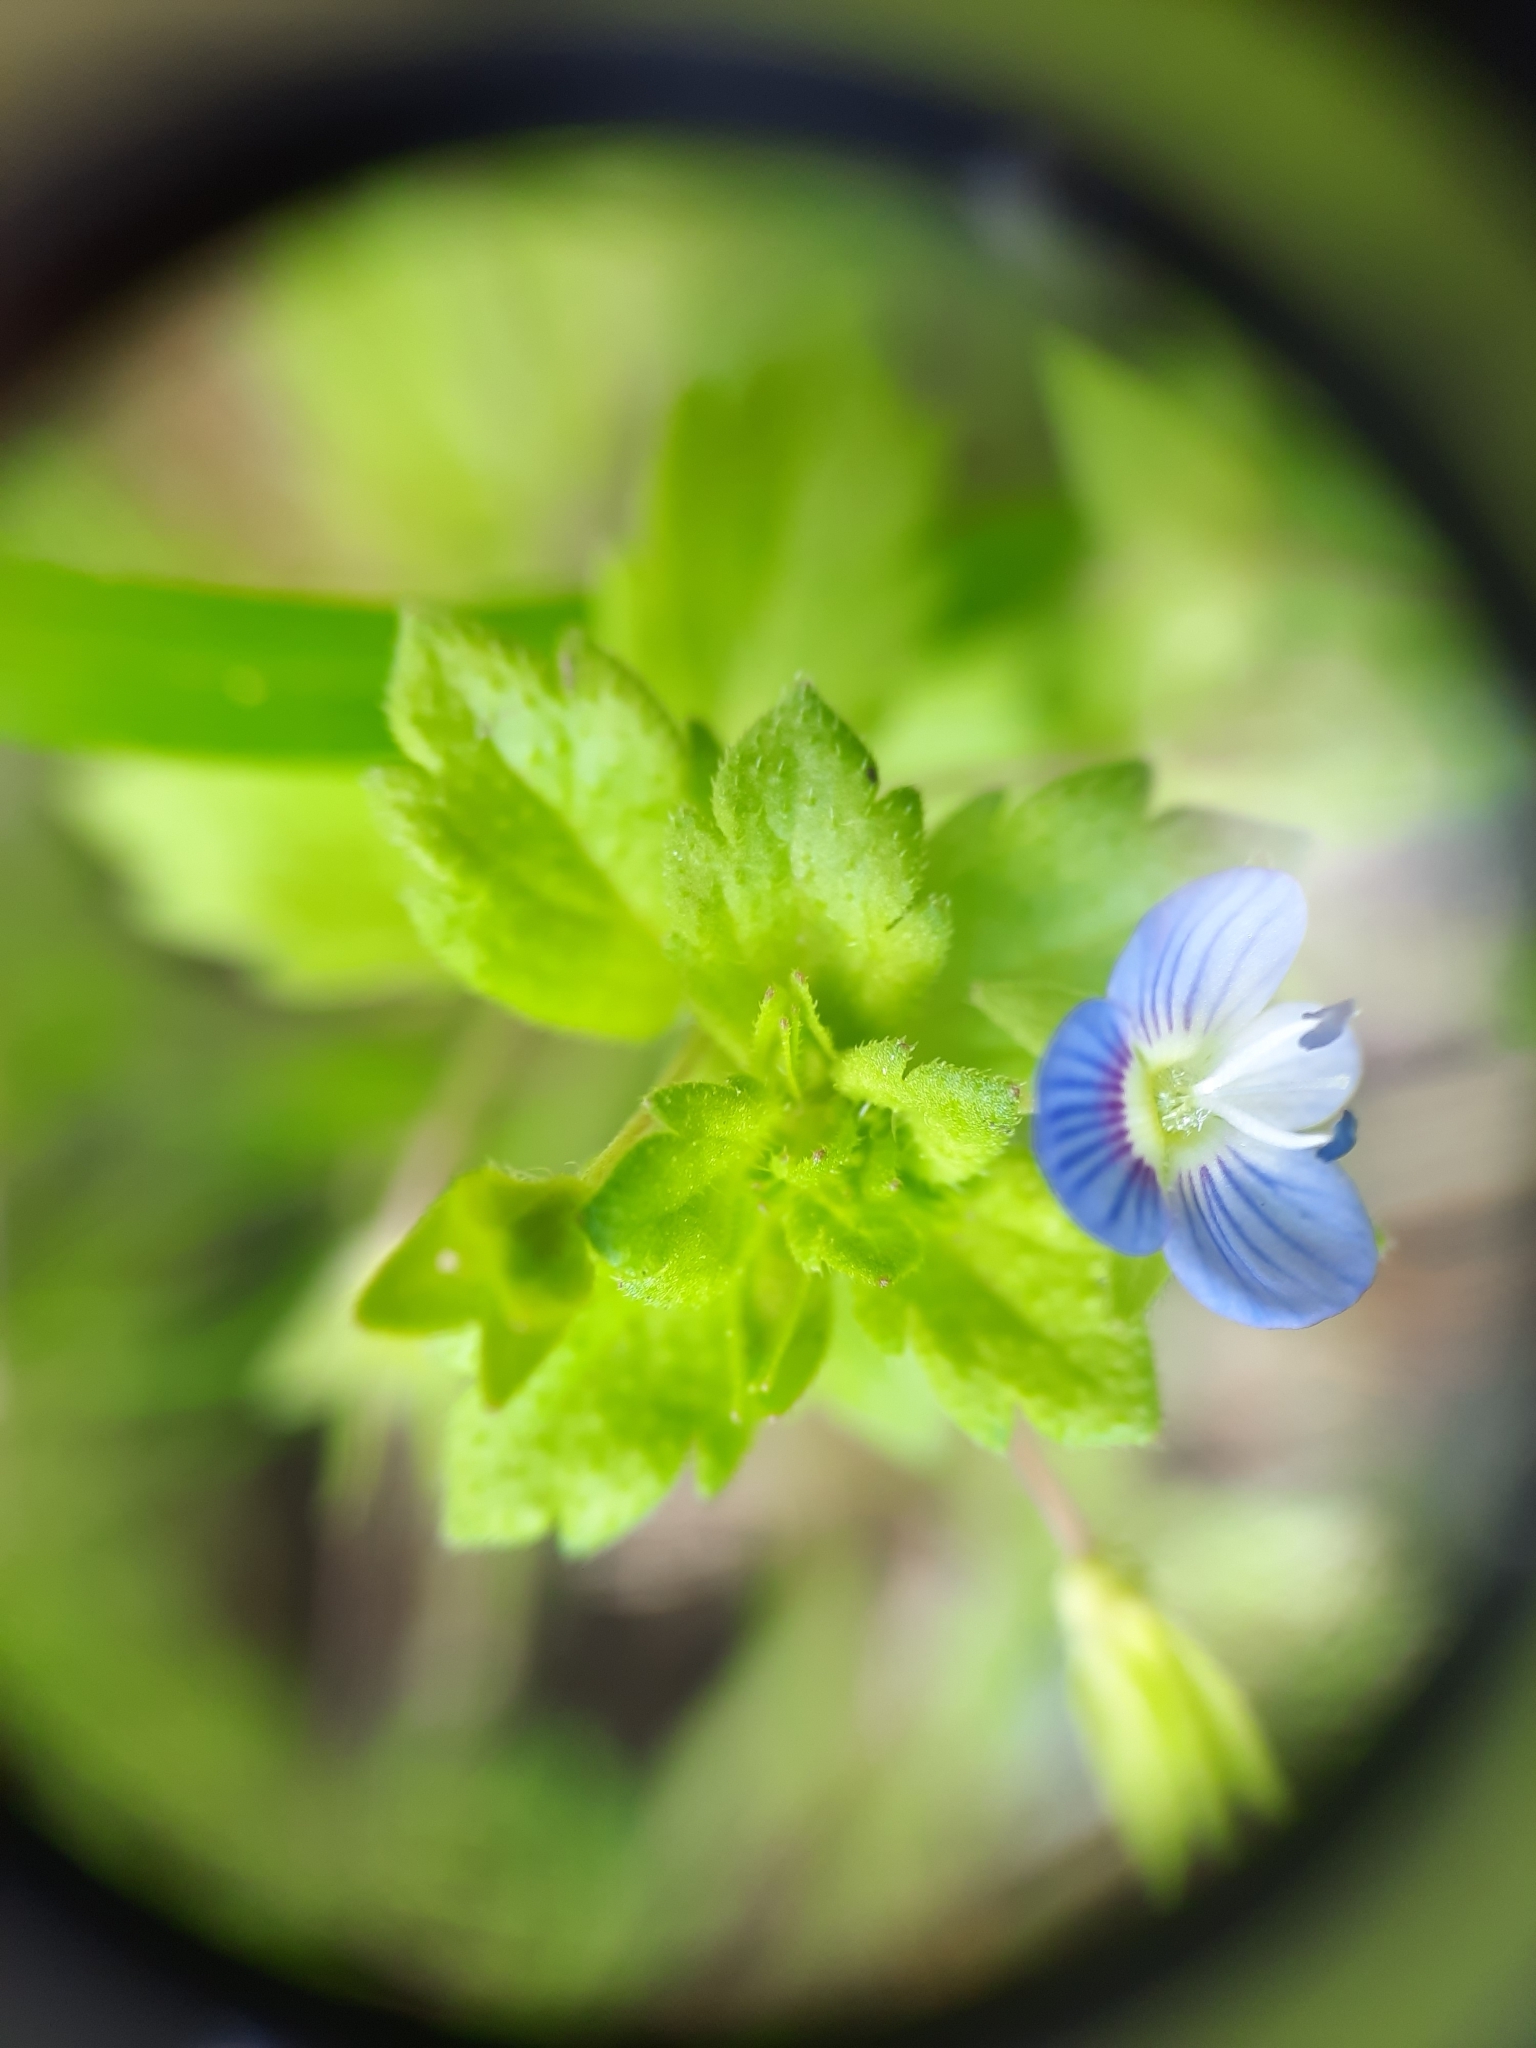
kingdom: Plantae
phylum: Tracheophyta
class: Magnoliopsida
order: Lamiales
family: Plantaginaceae
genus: Veronica
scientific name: Veronica persica
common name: Common field-speedwell
